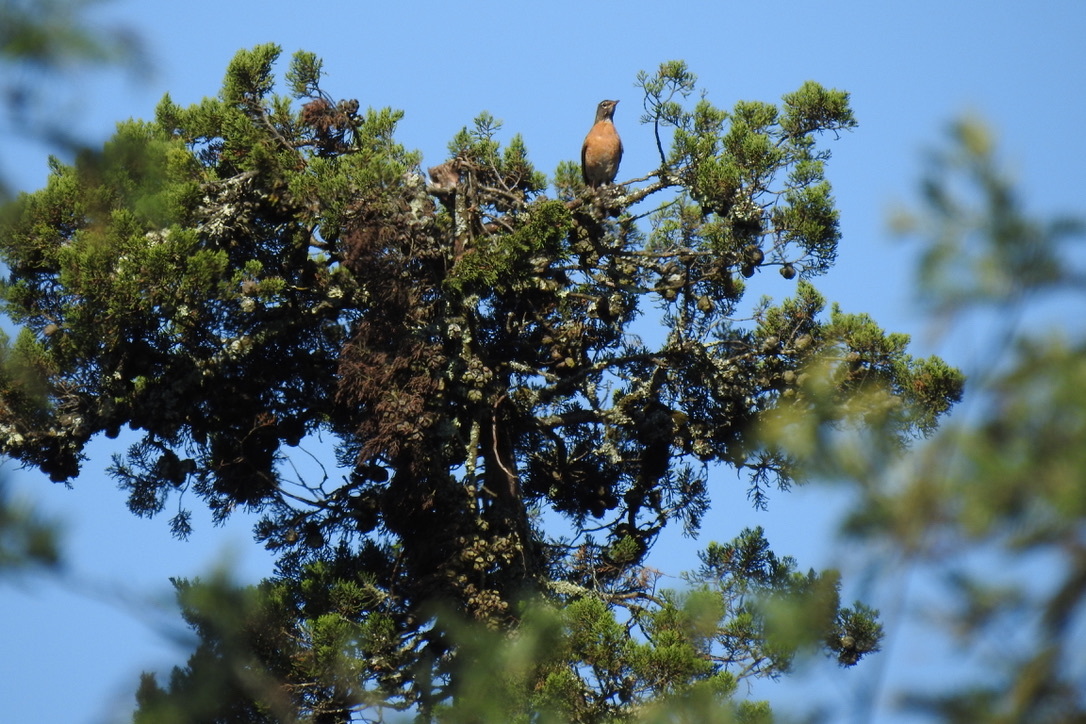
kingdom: Animalia
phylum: Chordata
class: Aves
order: Passeriformes
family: Turdidae
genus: Turdus
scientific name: Turdus migratorius
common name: American robin
